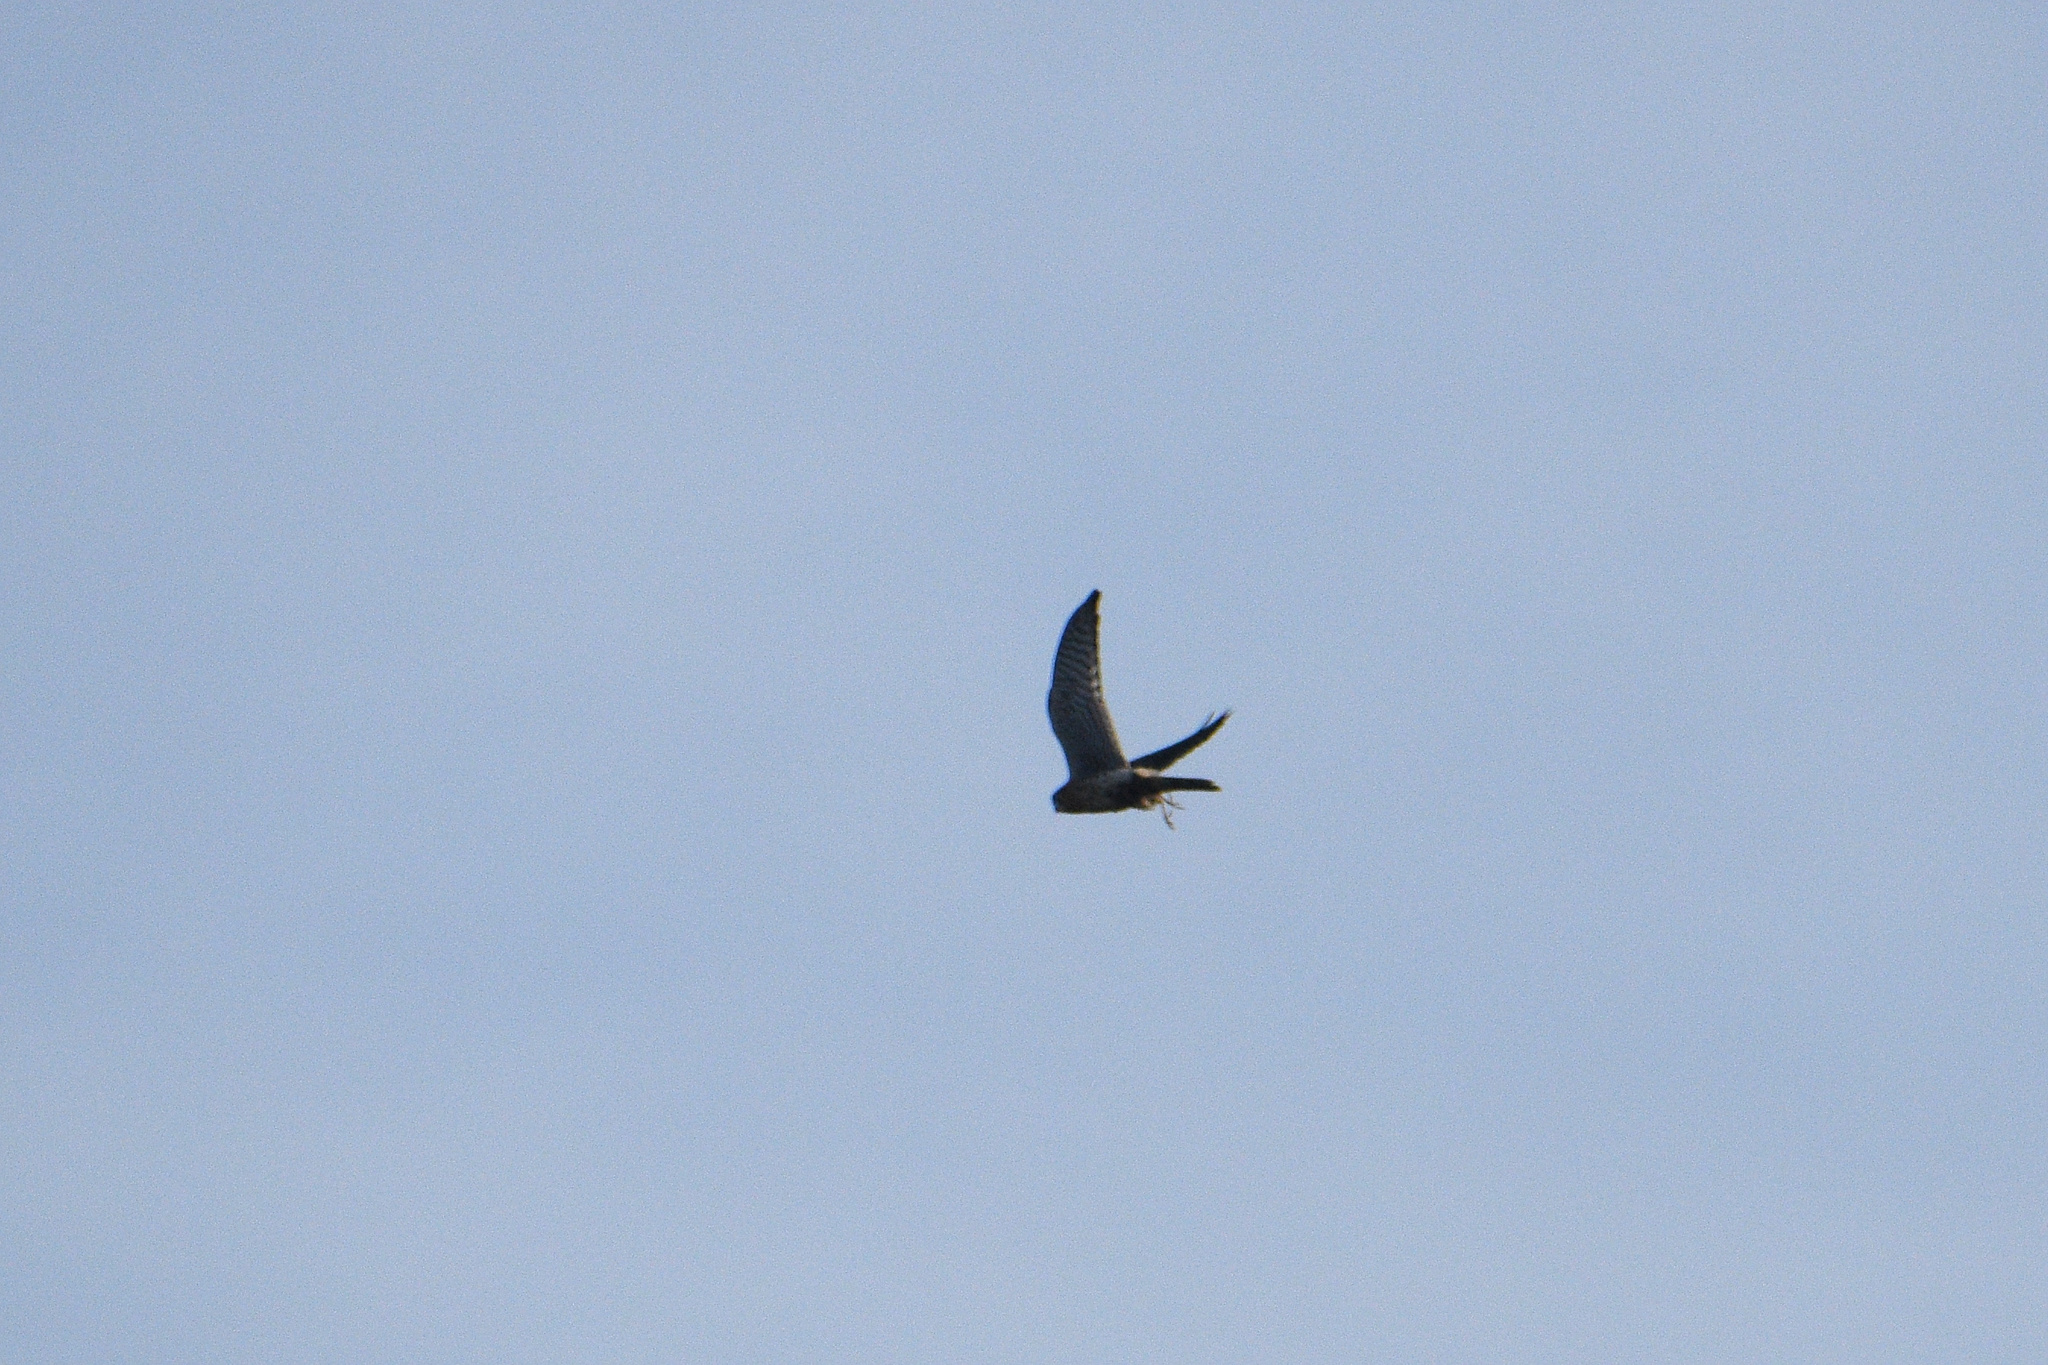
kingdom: Animalia
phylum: Chordata
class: Aves
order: Falconiformes
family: Falconidae
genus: Falco
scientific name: Falco sparverius
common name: American kestrel
